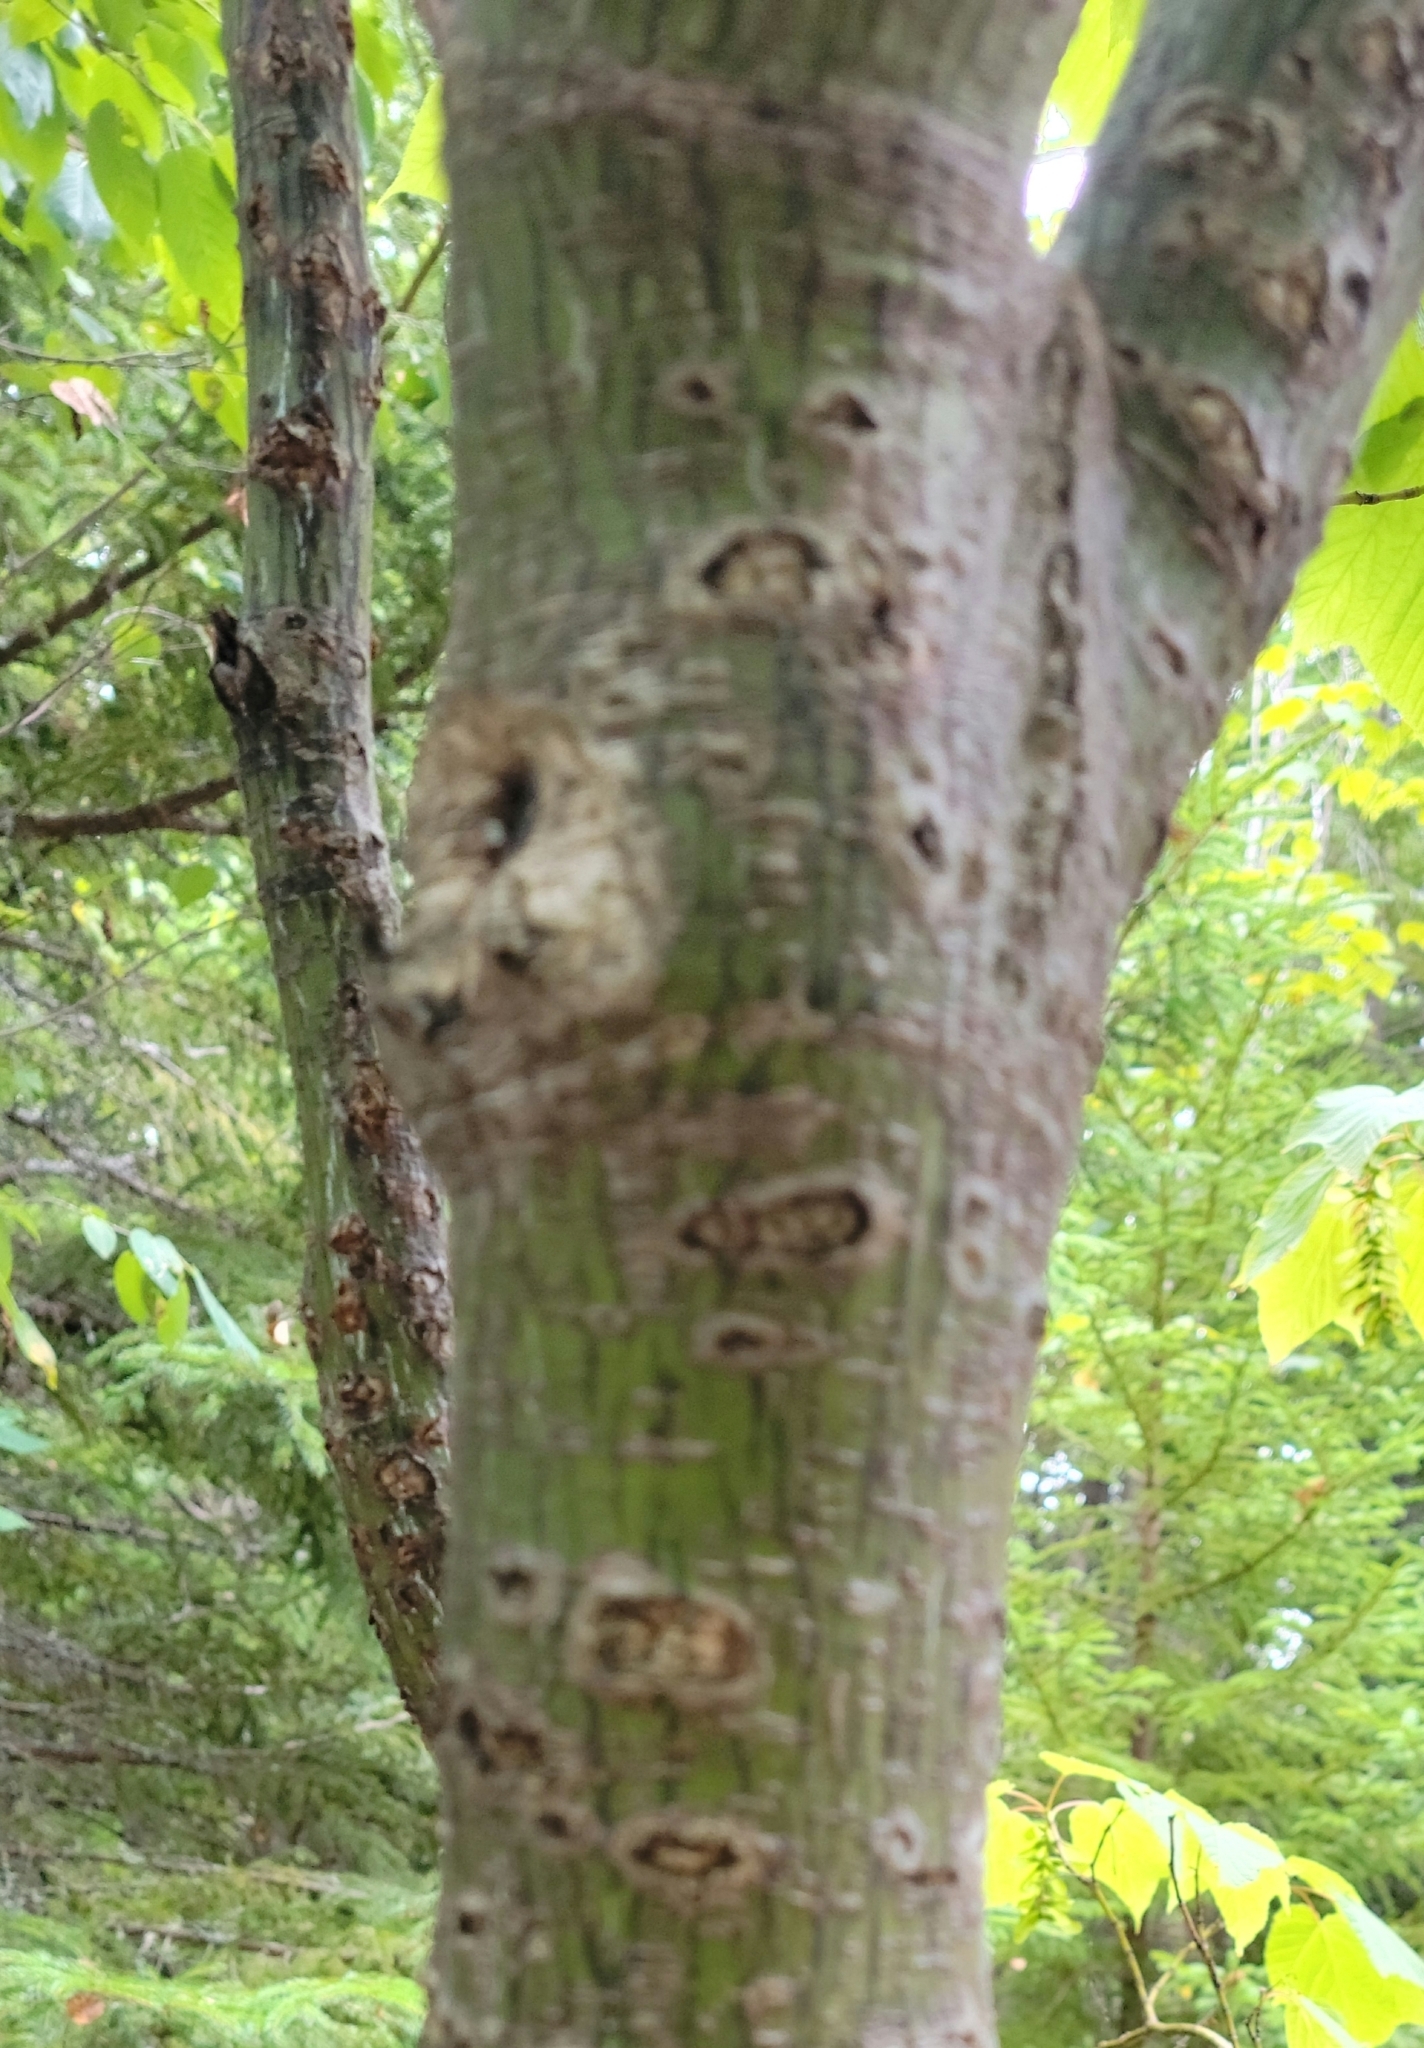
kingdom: Plantae
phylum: Tracheophyta
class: Magnoliopsida
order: Sapindales
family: Sapindaceae
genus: Acer
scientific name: Acer pensylvanicum
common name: Moosewood
